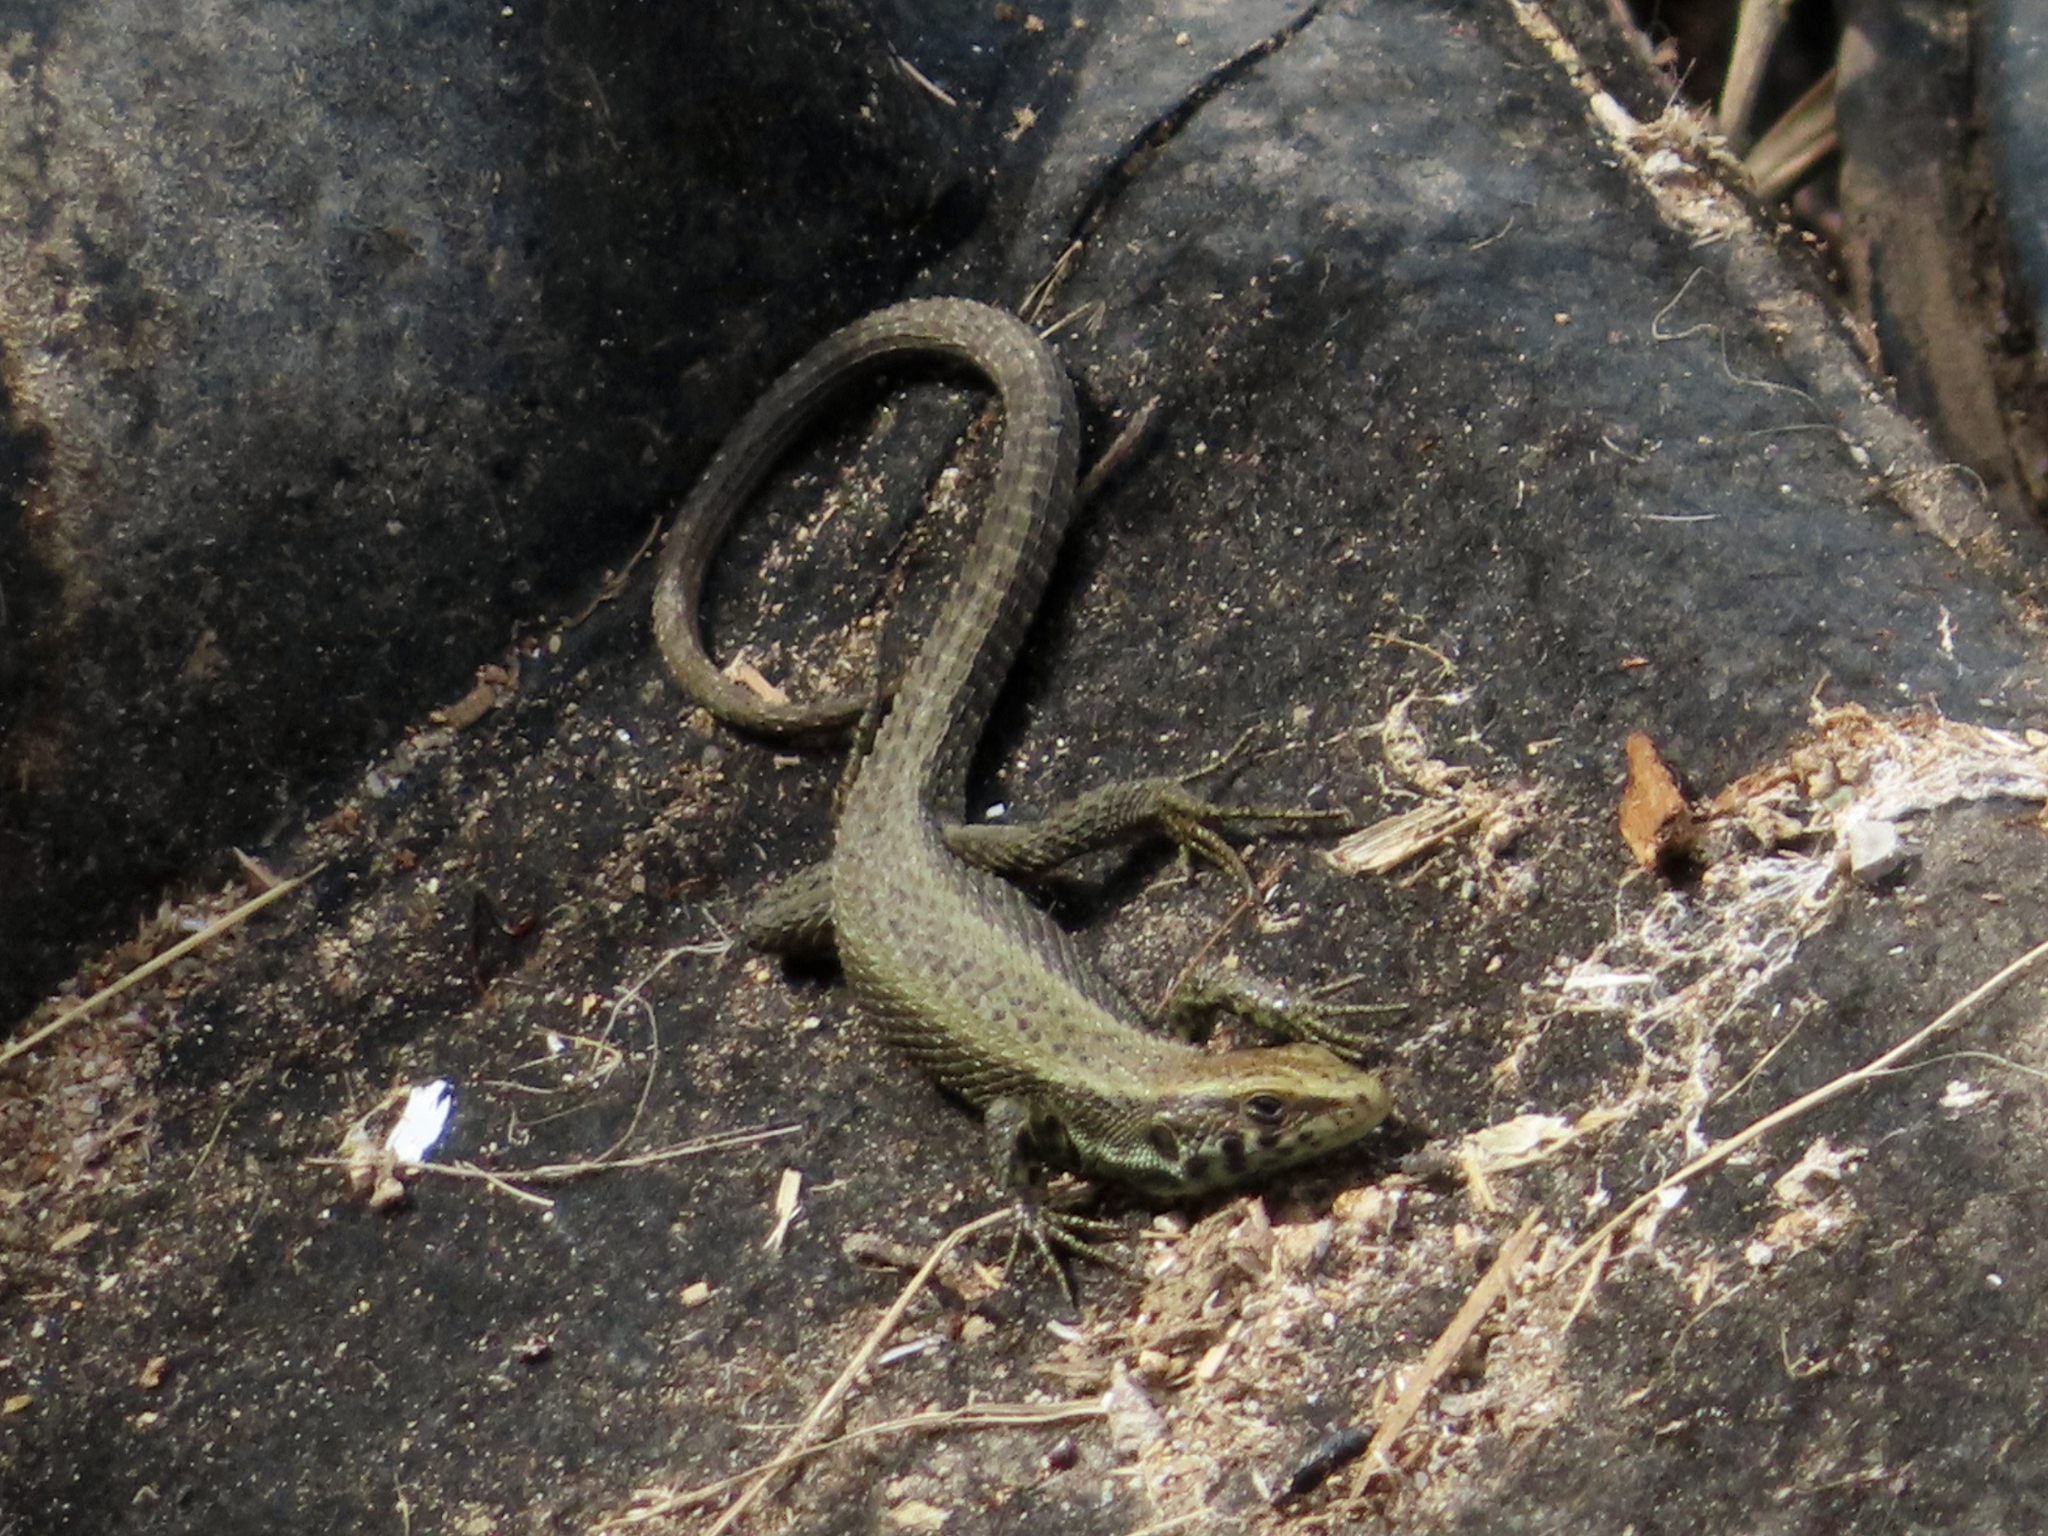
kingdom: Animalia
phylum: Chordata
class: Squamata
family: Lacertidae
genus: Algyroides
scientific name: Algyroides moreoticus
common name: Greek algyroides
